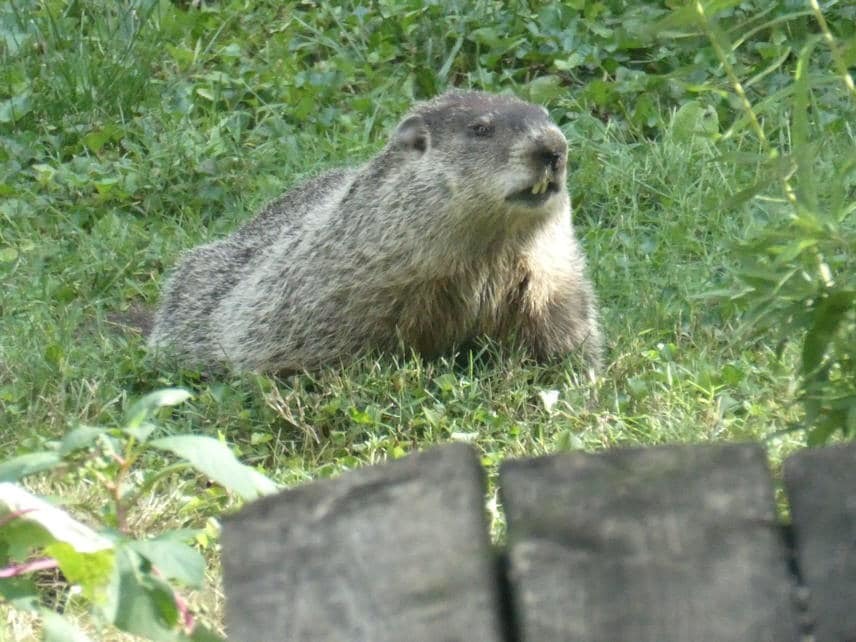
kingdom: Animalia
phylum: Chordata
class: Mammalia
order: Rodentia
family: Sciuridae
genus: Marmota
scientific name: Marmota monax
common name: Groundhog
